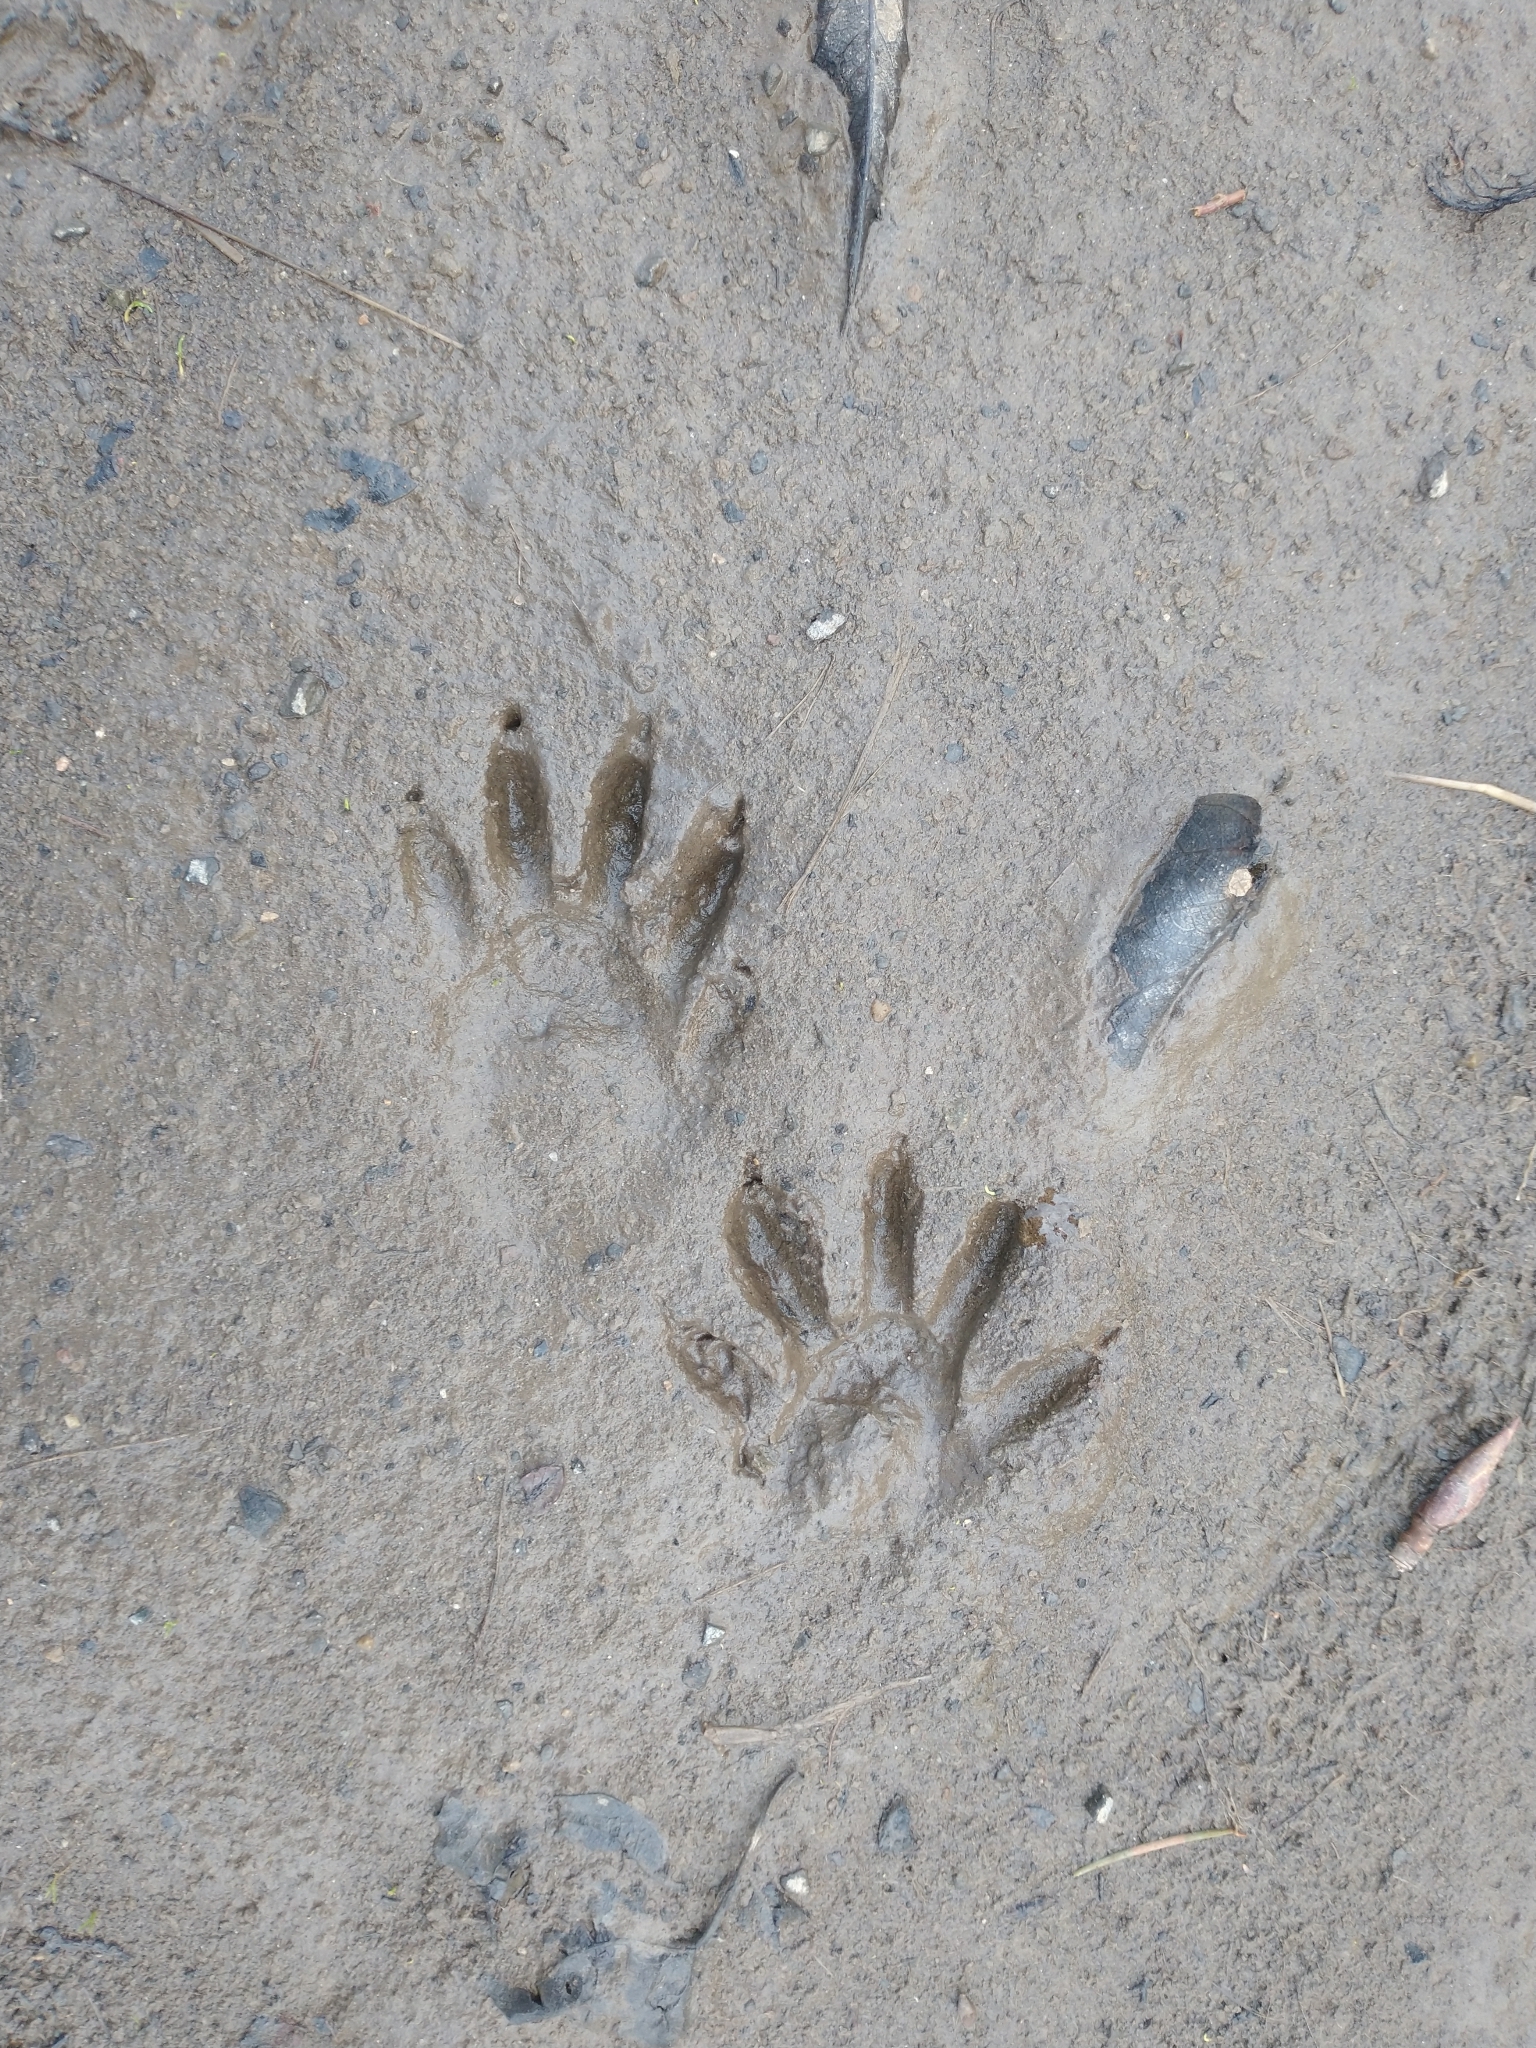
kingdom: Animalia
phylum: Chordata
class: Mammalia
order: Carnivora
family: Procyonidae
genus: Procyon
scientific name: Procyon lotor
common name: Raccoon
